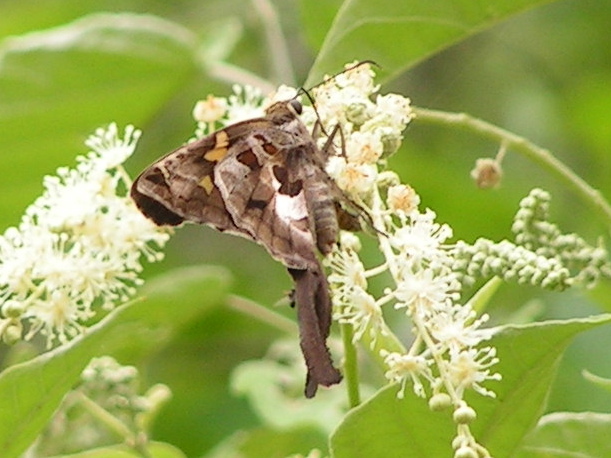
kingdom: Animalia
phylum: Arthropoda
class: Insecta
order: Lepidoptera
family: Hesperiidae
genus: Chioides
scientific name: Chioides zilpa
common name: Zilpa longtail
